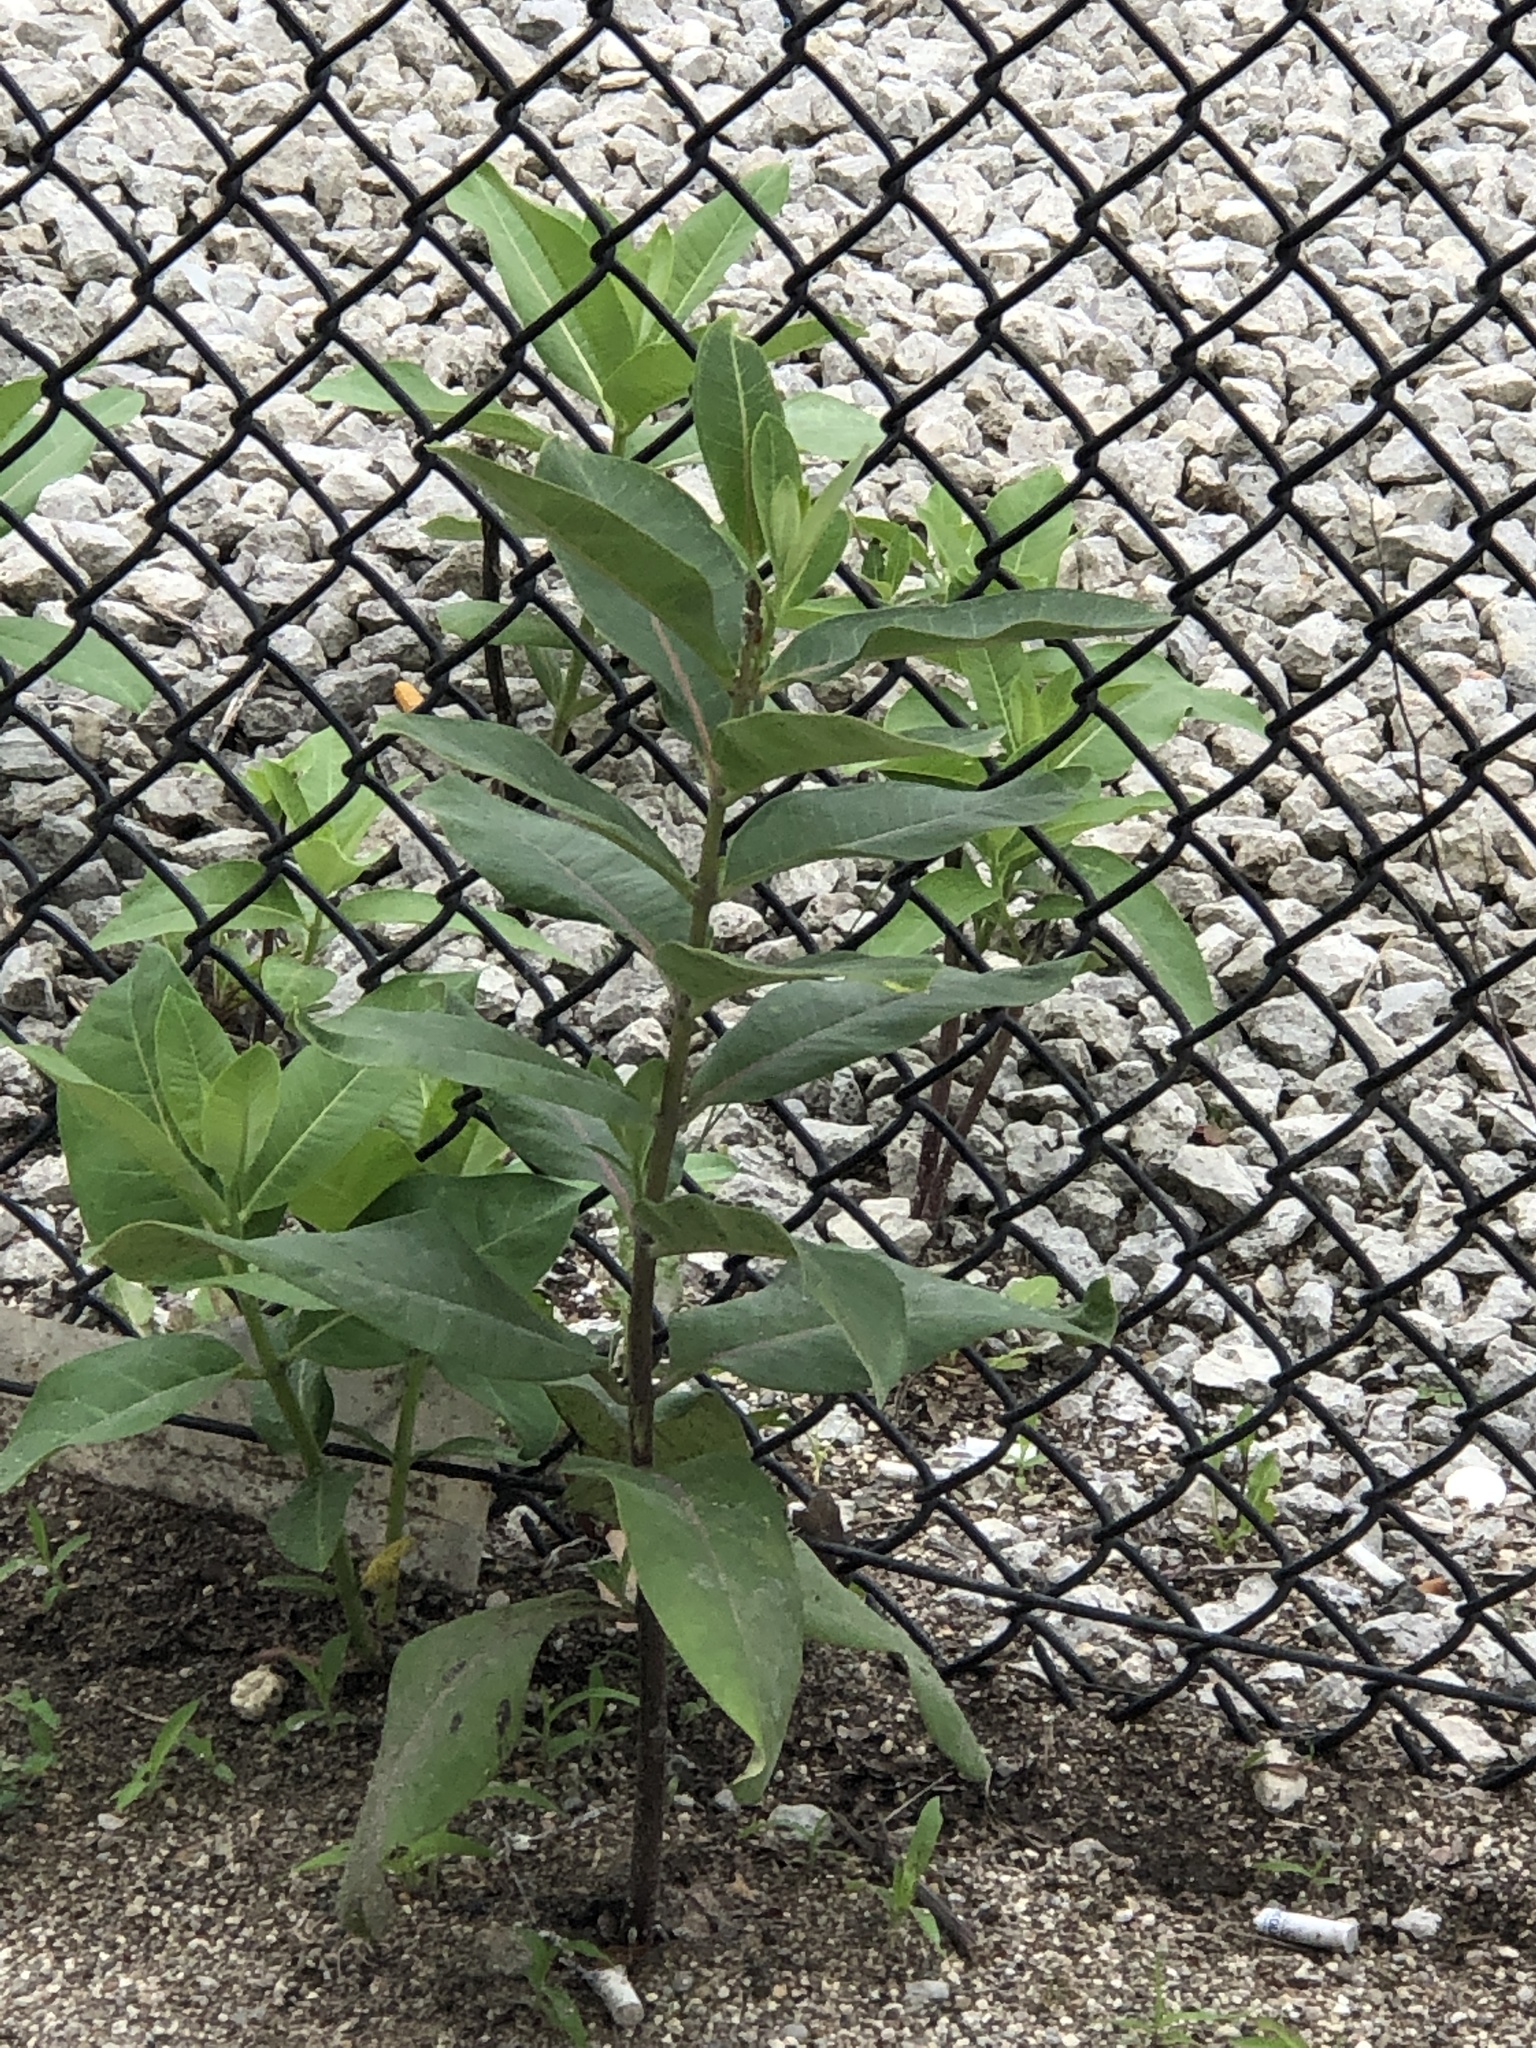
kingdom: Plantae
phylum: Tracheophyta
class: Magnoliopsida
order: Gentianales
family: Apocynaceae
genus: Asclepias
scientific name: Asclepias syriaca
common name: Common milkweed
